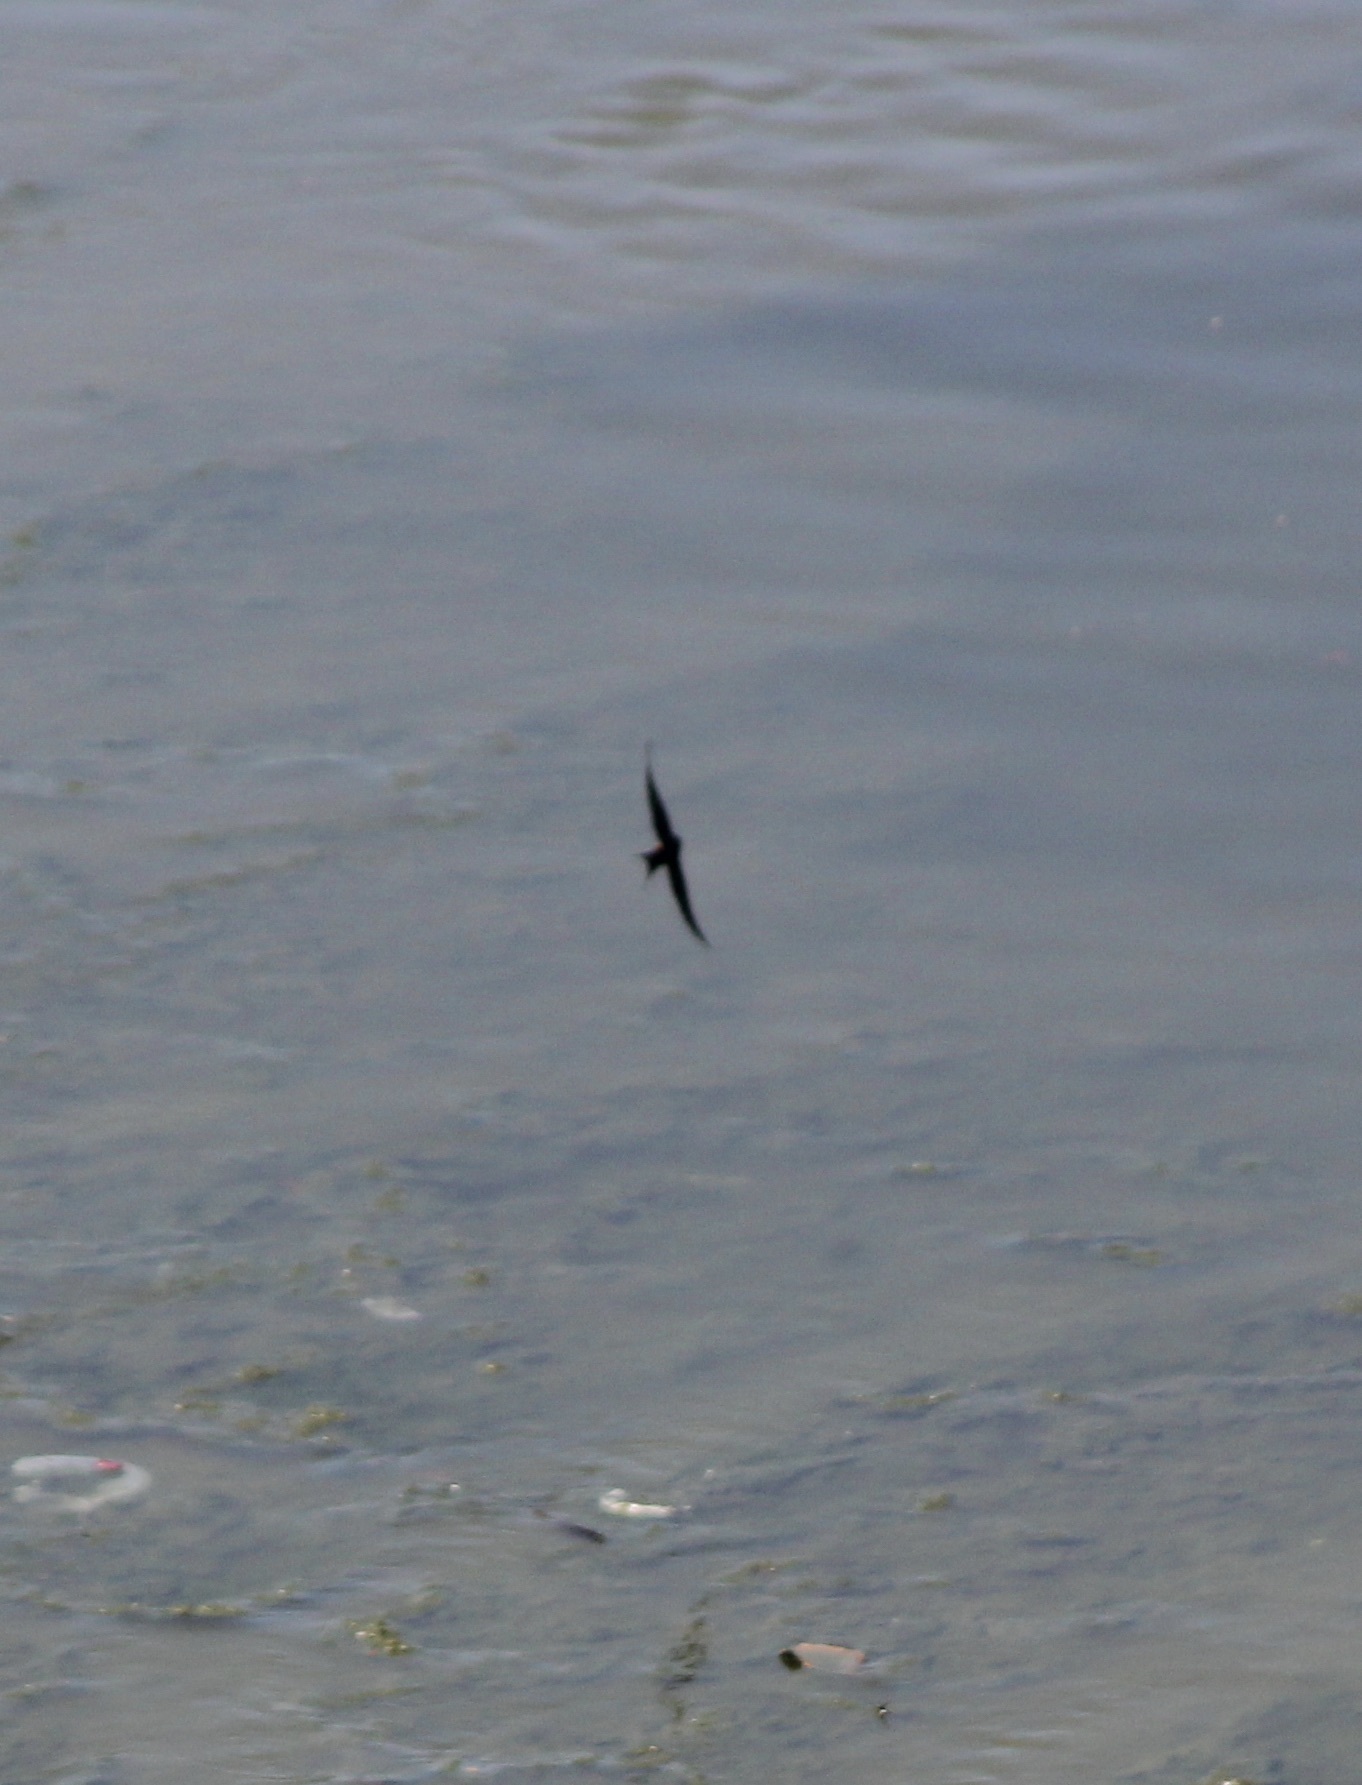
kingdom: Animalia
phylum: Chordata
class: Aves
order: Passeriformes
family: Hirundinidae
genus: Hirundo
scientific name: Hirundo rustica
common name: Barn swallow
